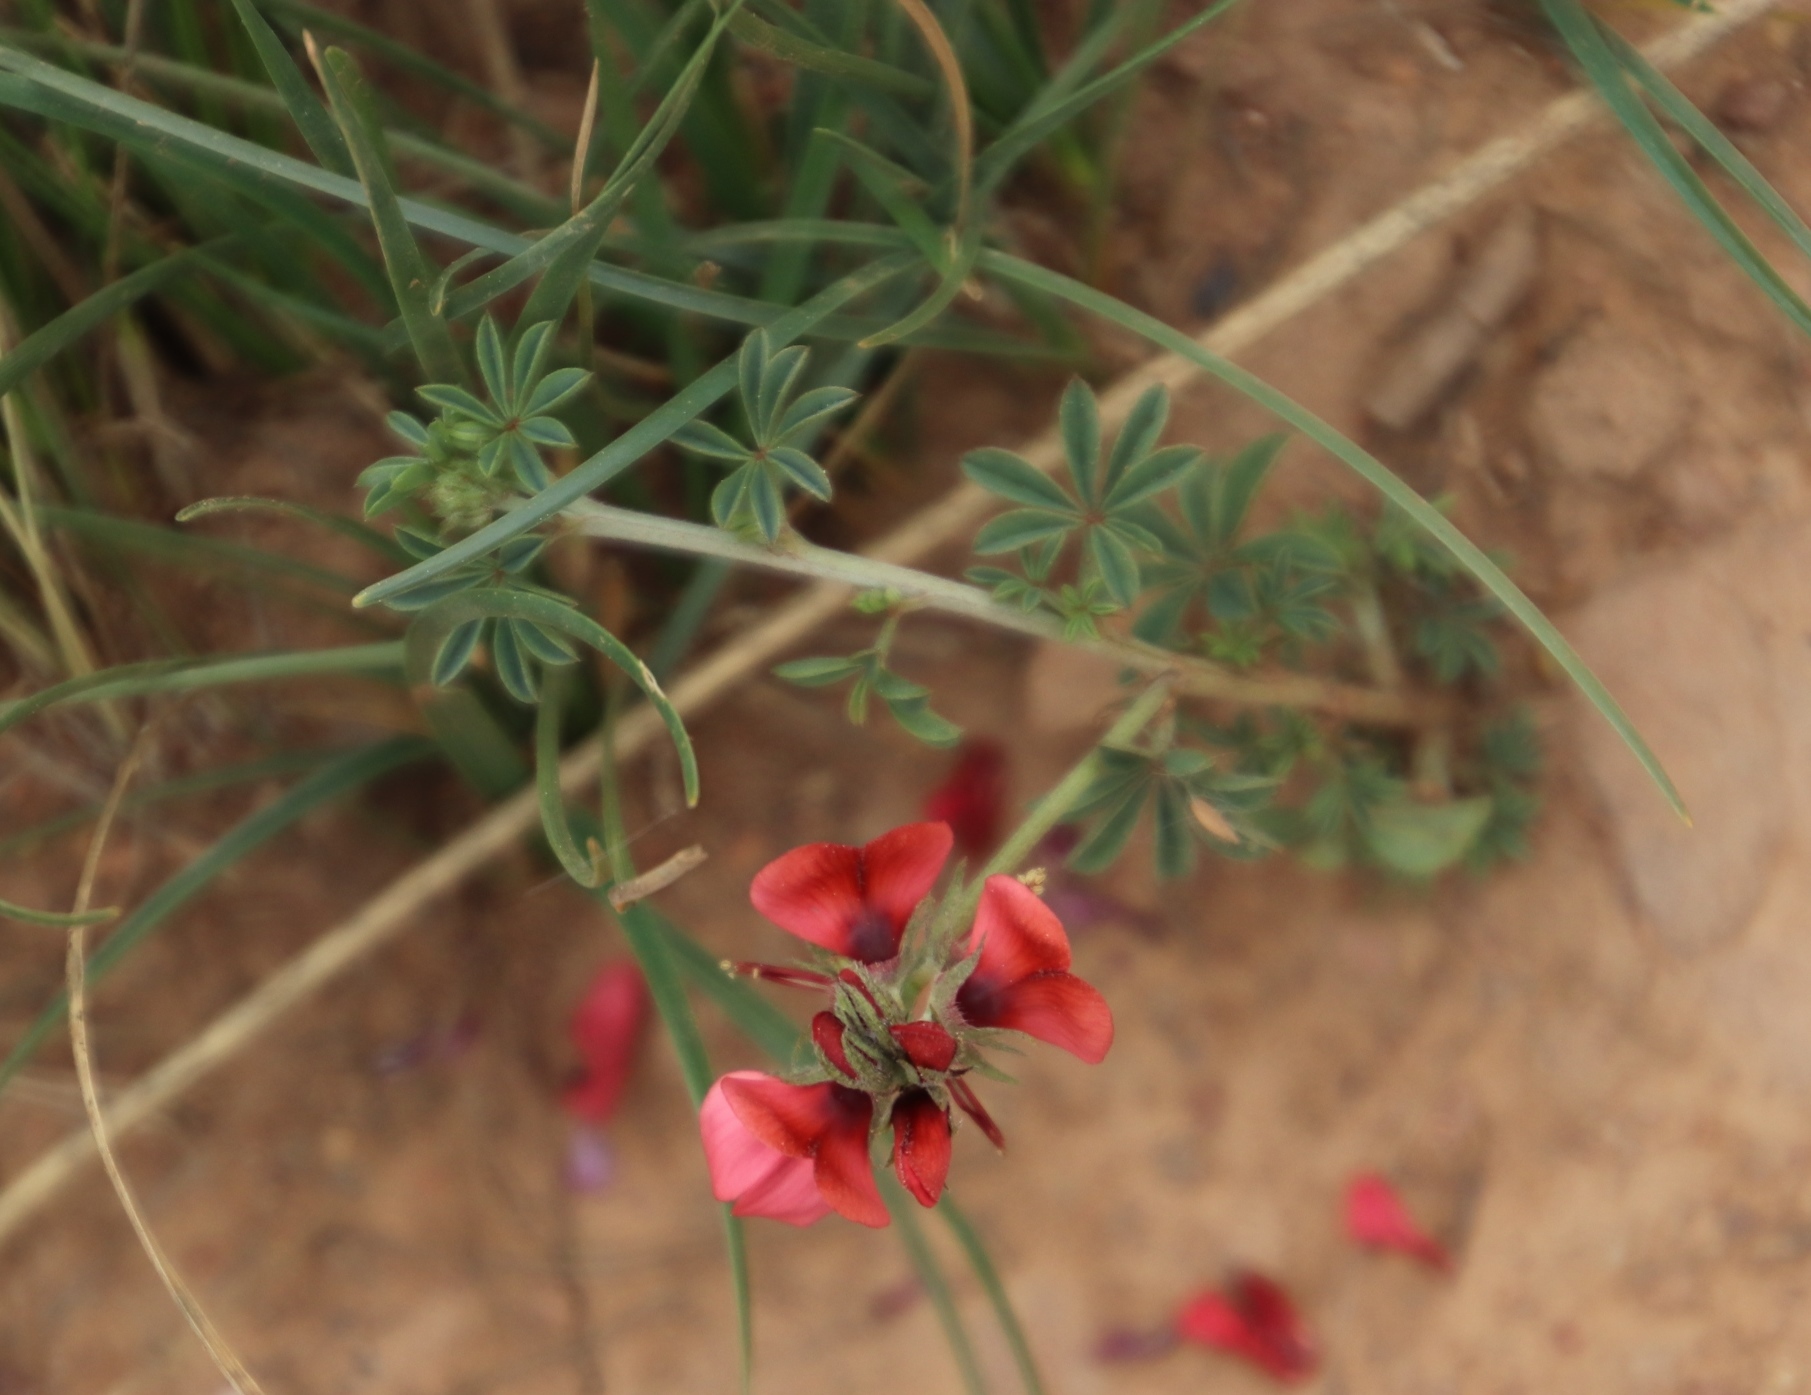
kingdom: Plantae
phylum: Tracheophyta
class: Magnoliopsida
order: Fabales
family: Fabaceae
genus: Indigofera
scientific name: Indigofera digitata
